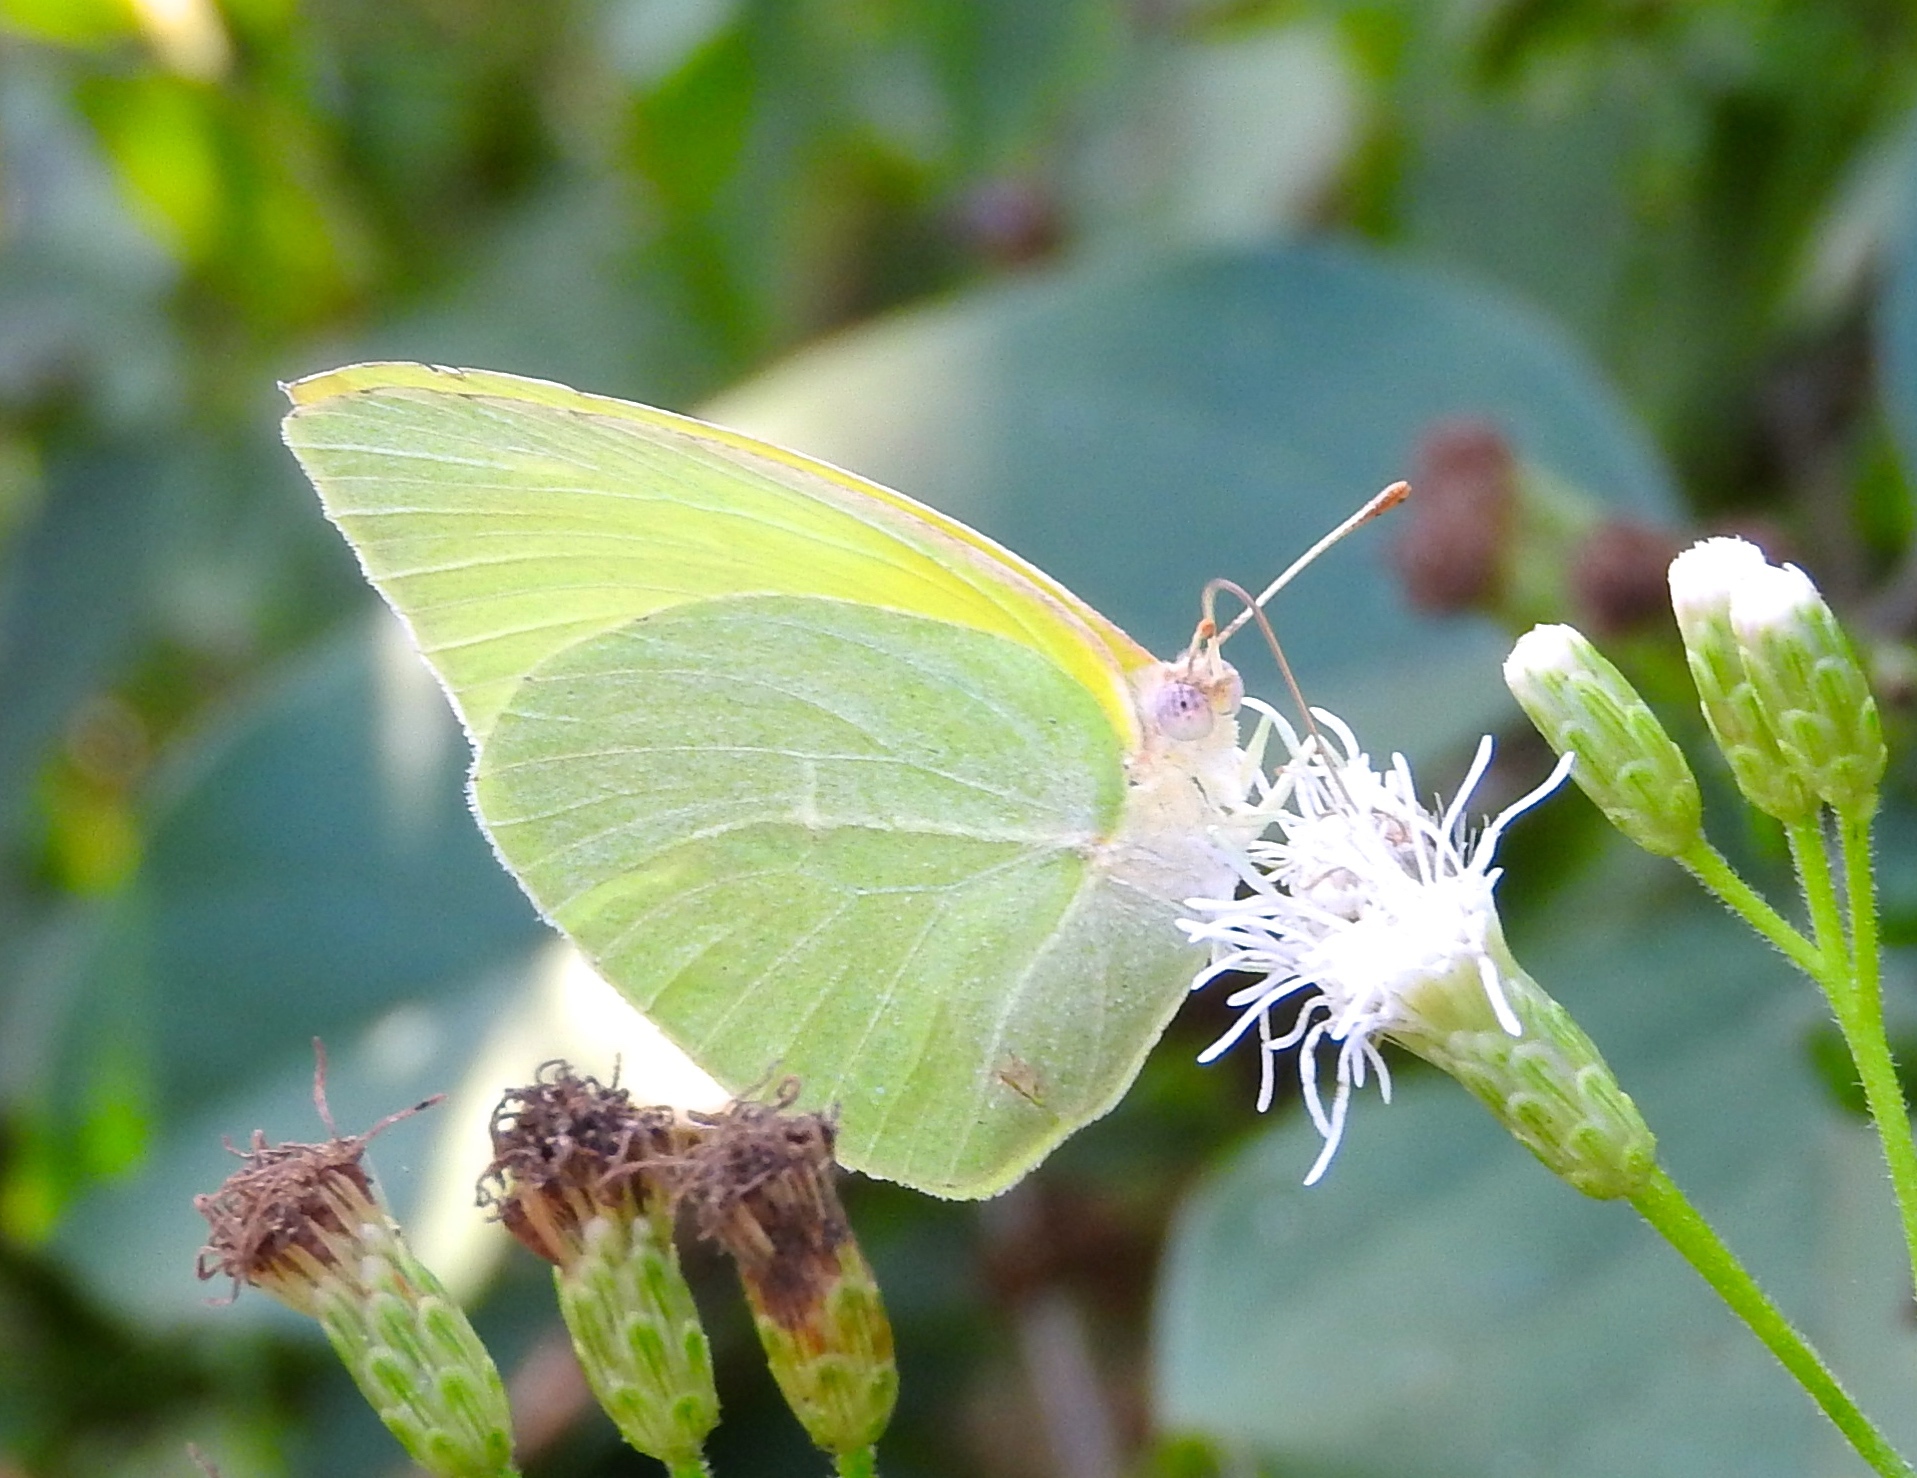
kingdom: Animalia
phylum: Arthropoda
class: Insecta
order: Lepidoptera
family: Pieridae
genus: Kricogonia
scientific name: Kricogonia lyside
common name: Guayacan sulphur,
